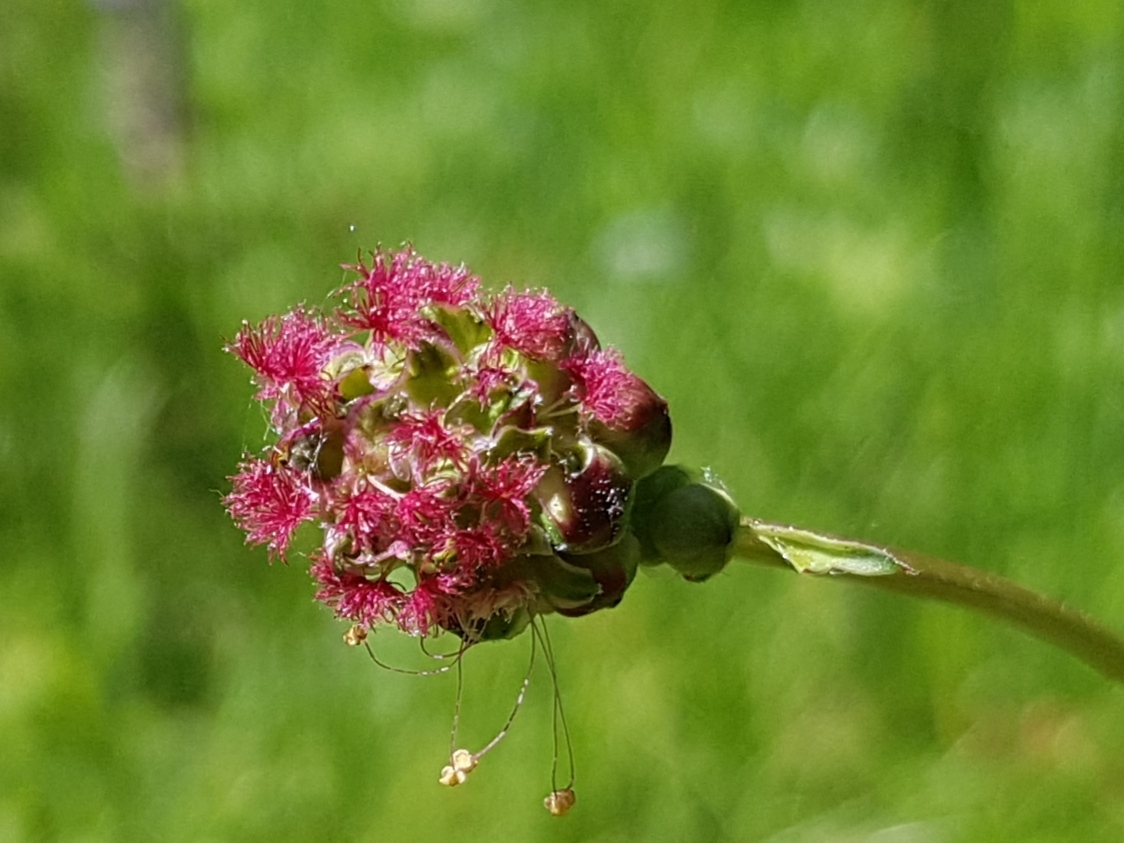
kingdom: Plantae
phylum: Tracheophyta
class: Magnoliopsida
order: Rosales
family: Rosaceae
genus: Poterium
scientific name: Poterium sanguisorba
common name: Salad burnet
